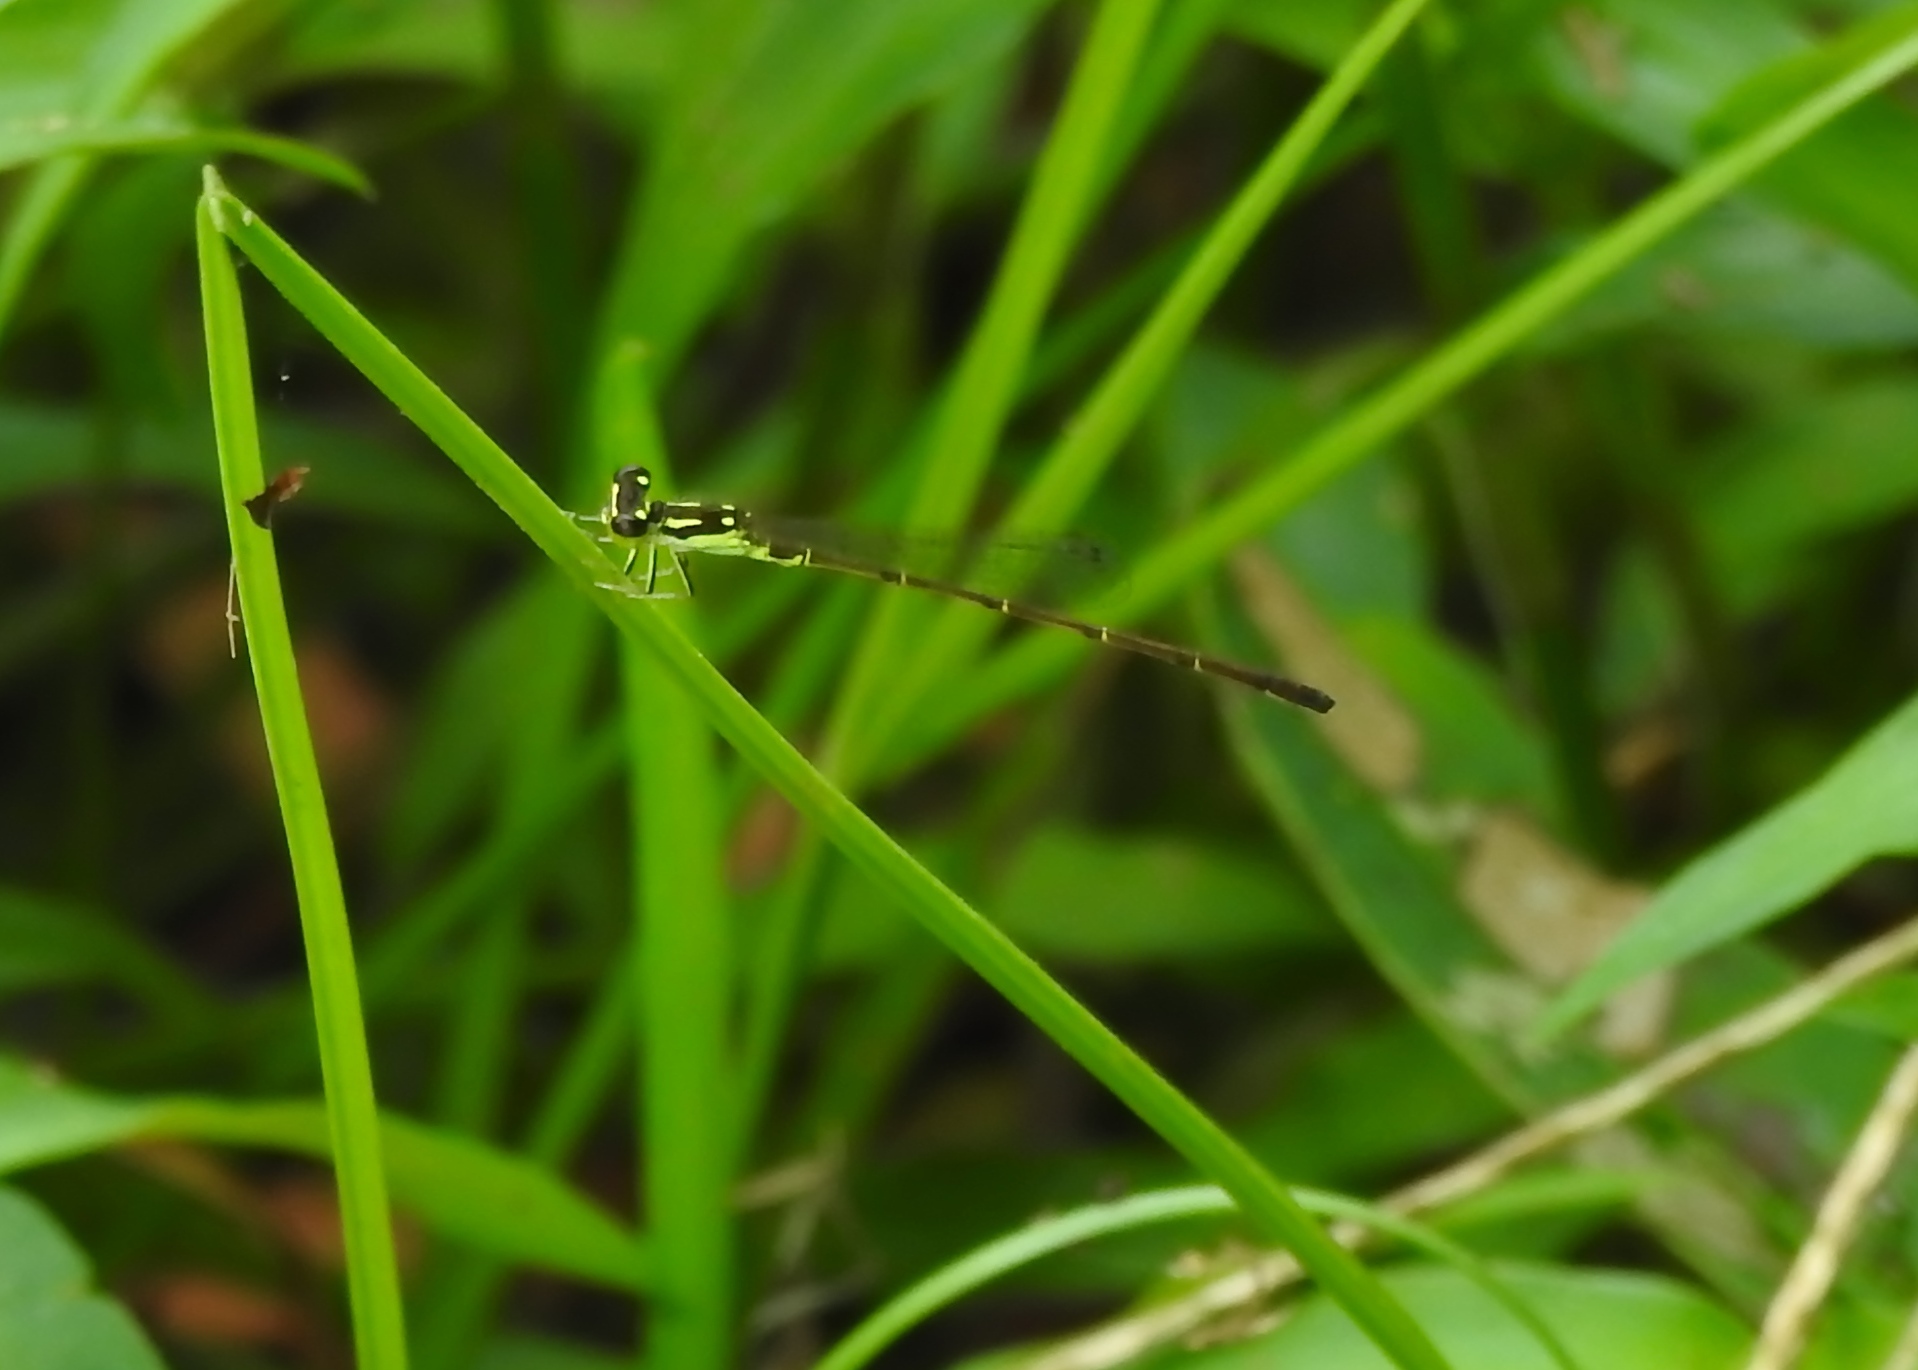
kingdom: Animalia
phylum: Arthropoda
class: Insecta
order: Odonata
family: Coenagrionidae
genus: Ischnura
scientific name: Ischnura posita
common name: Fragile forktail
